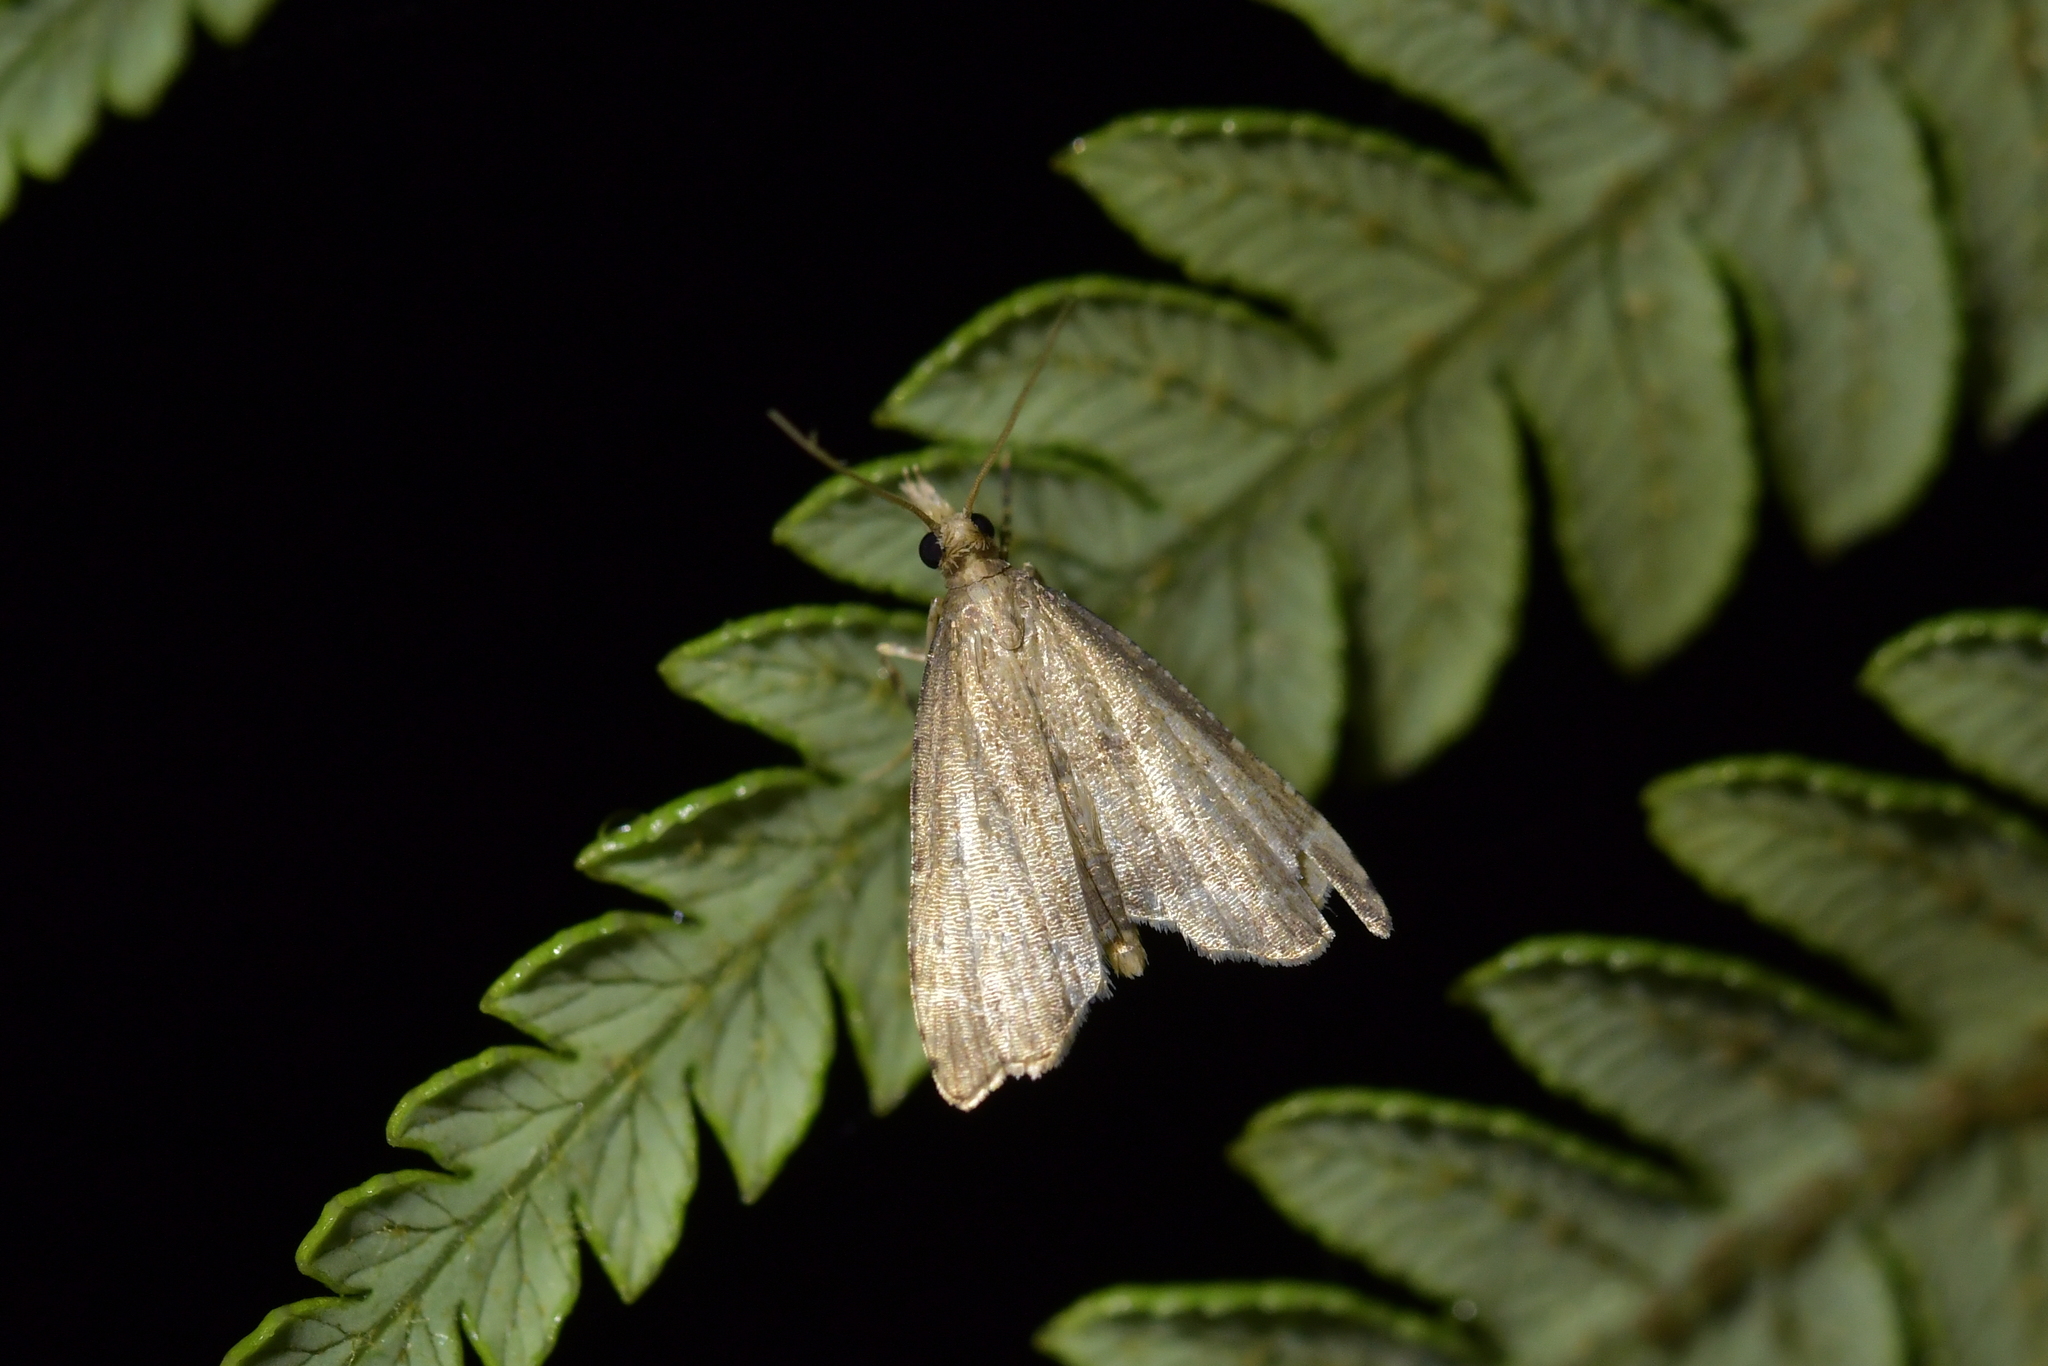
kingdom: Animalia
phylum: Arthropoda
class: Insecta
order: Lepidoptera
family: Crambidae
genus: Diplopseustis
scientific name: Diplopseustis perieresalis
